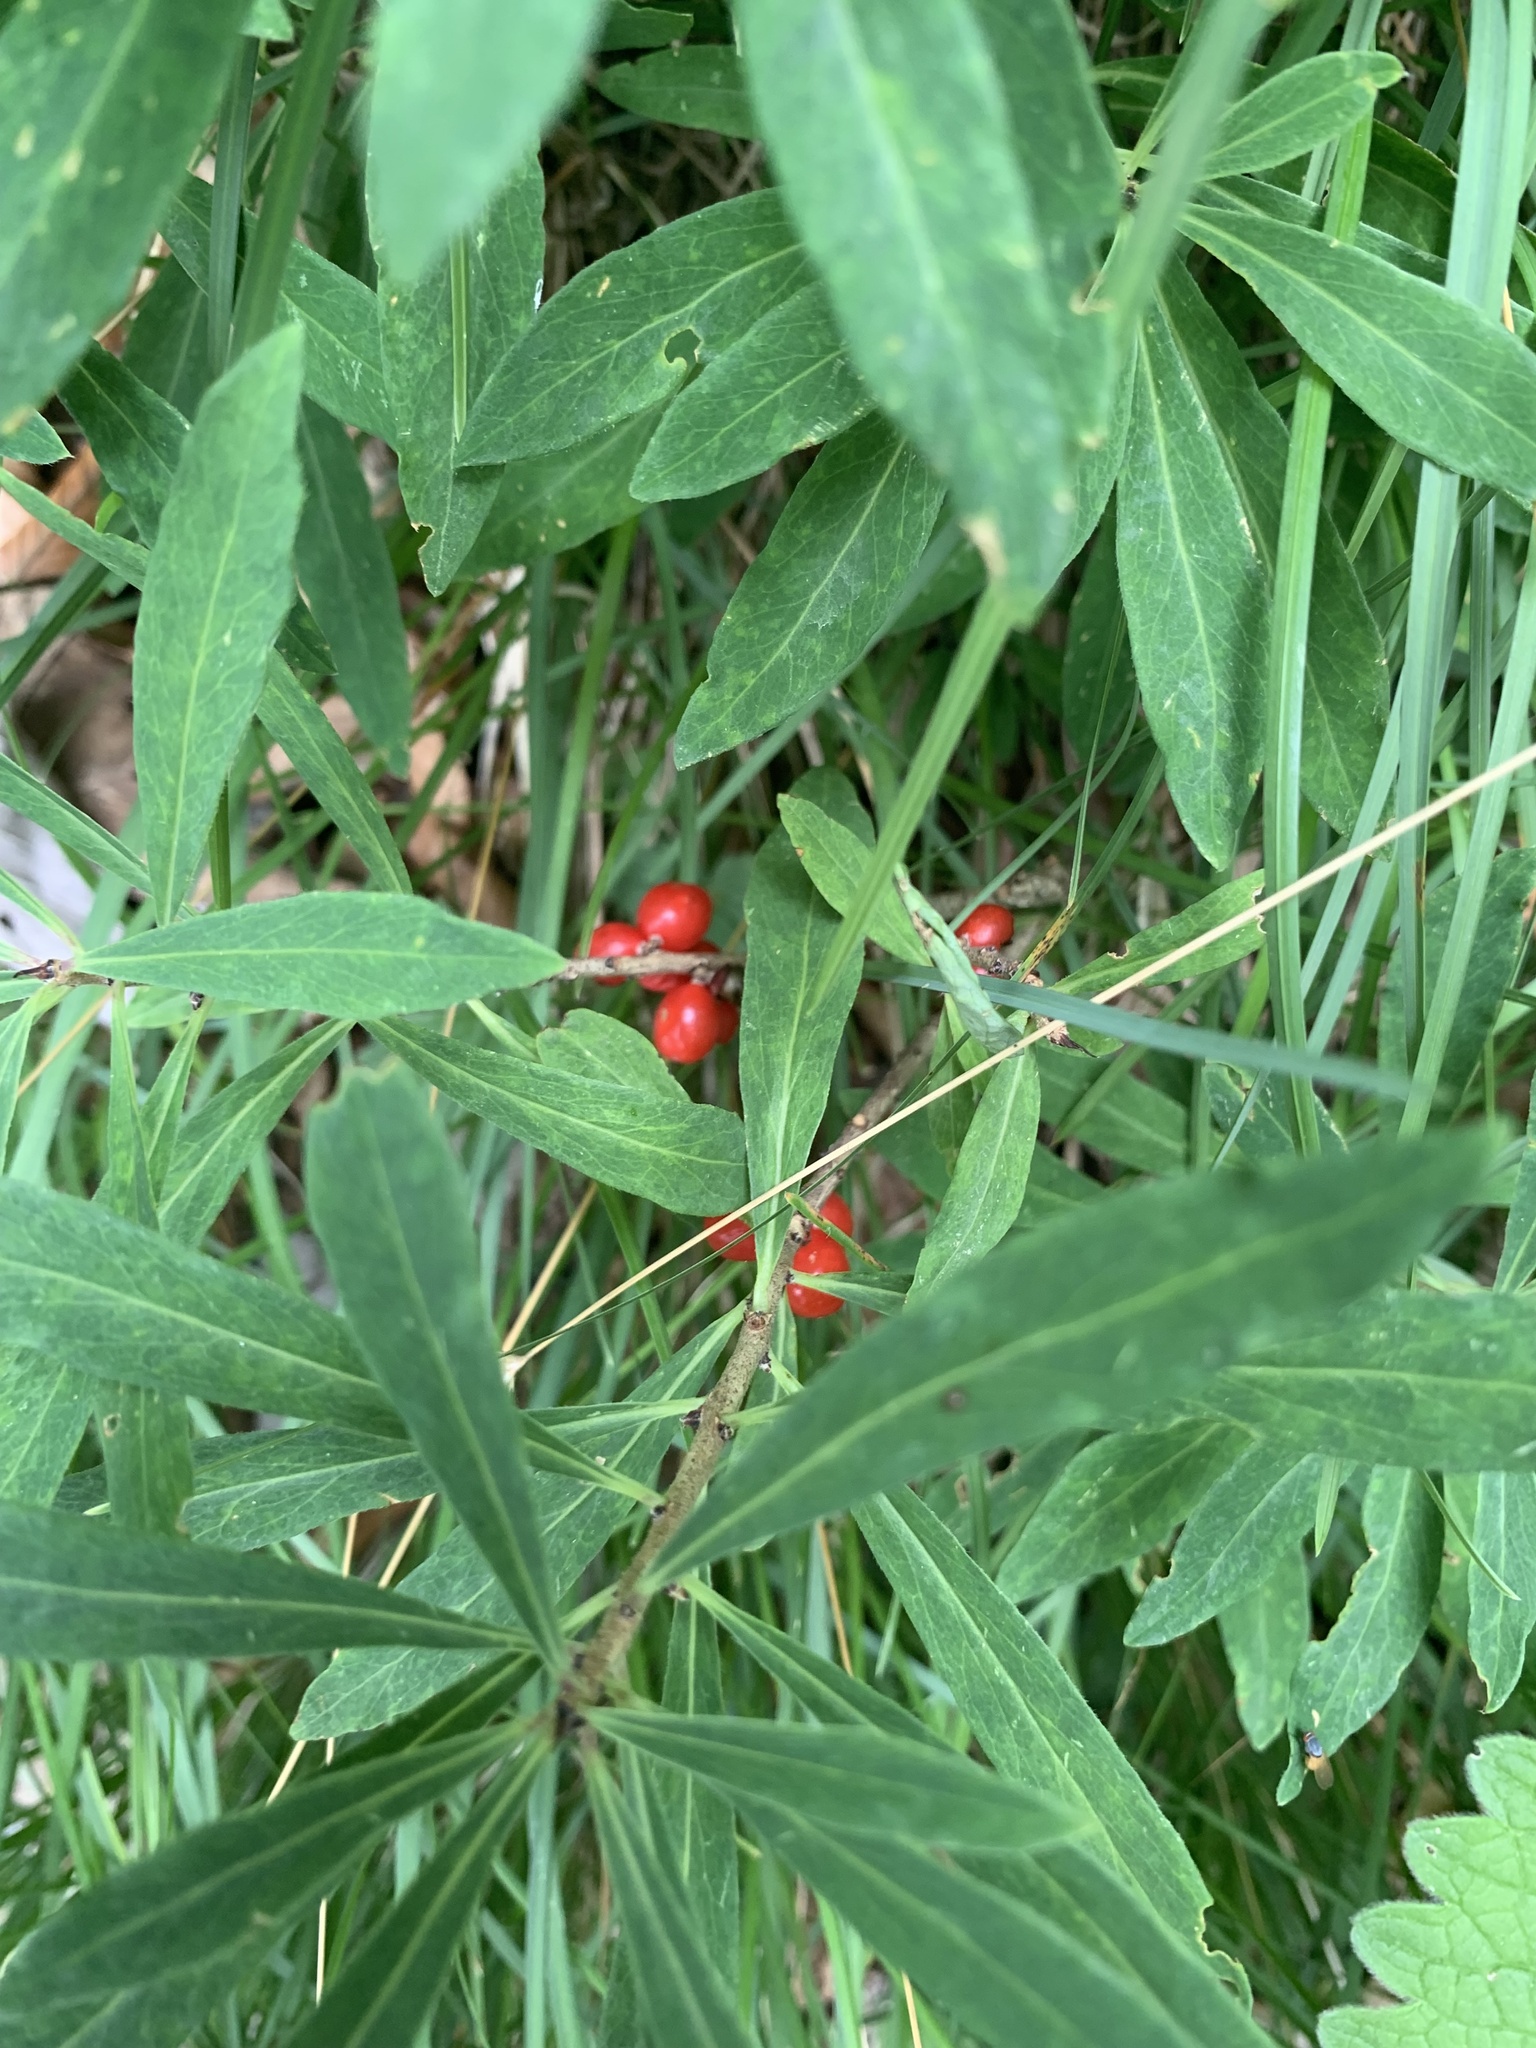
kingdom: Plantae
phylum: Tracheophyta
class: Magnoliopsida
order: Malvales
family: Thymelaeaceae
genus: Daphne
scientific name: Daphne mezereum
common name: Mezereon
